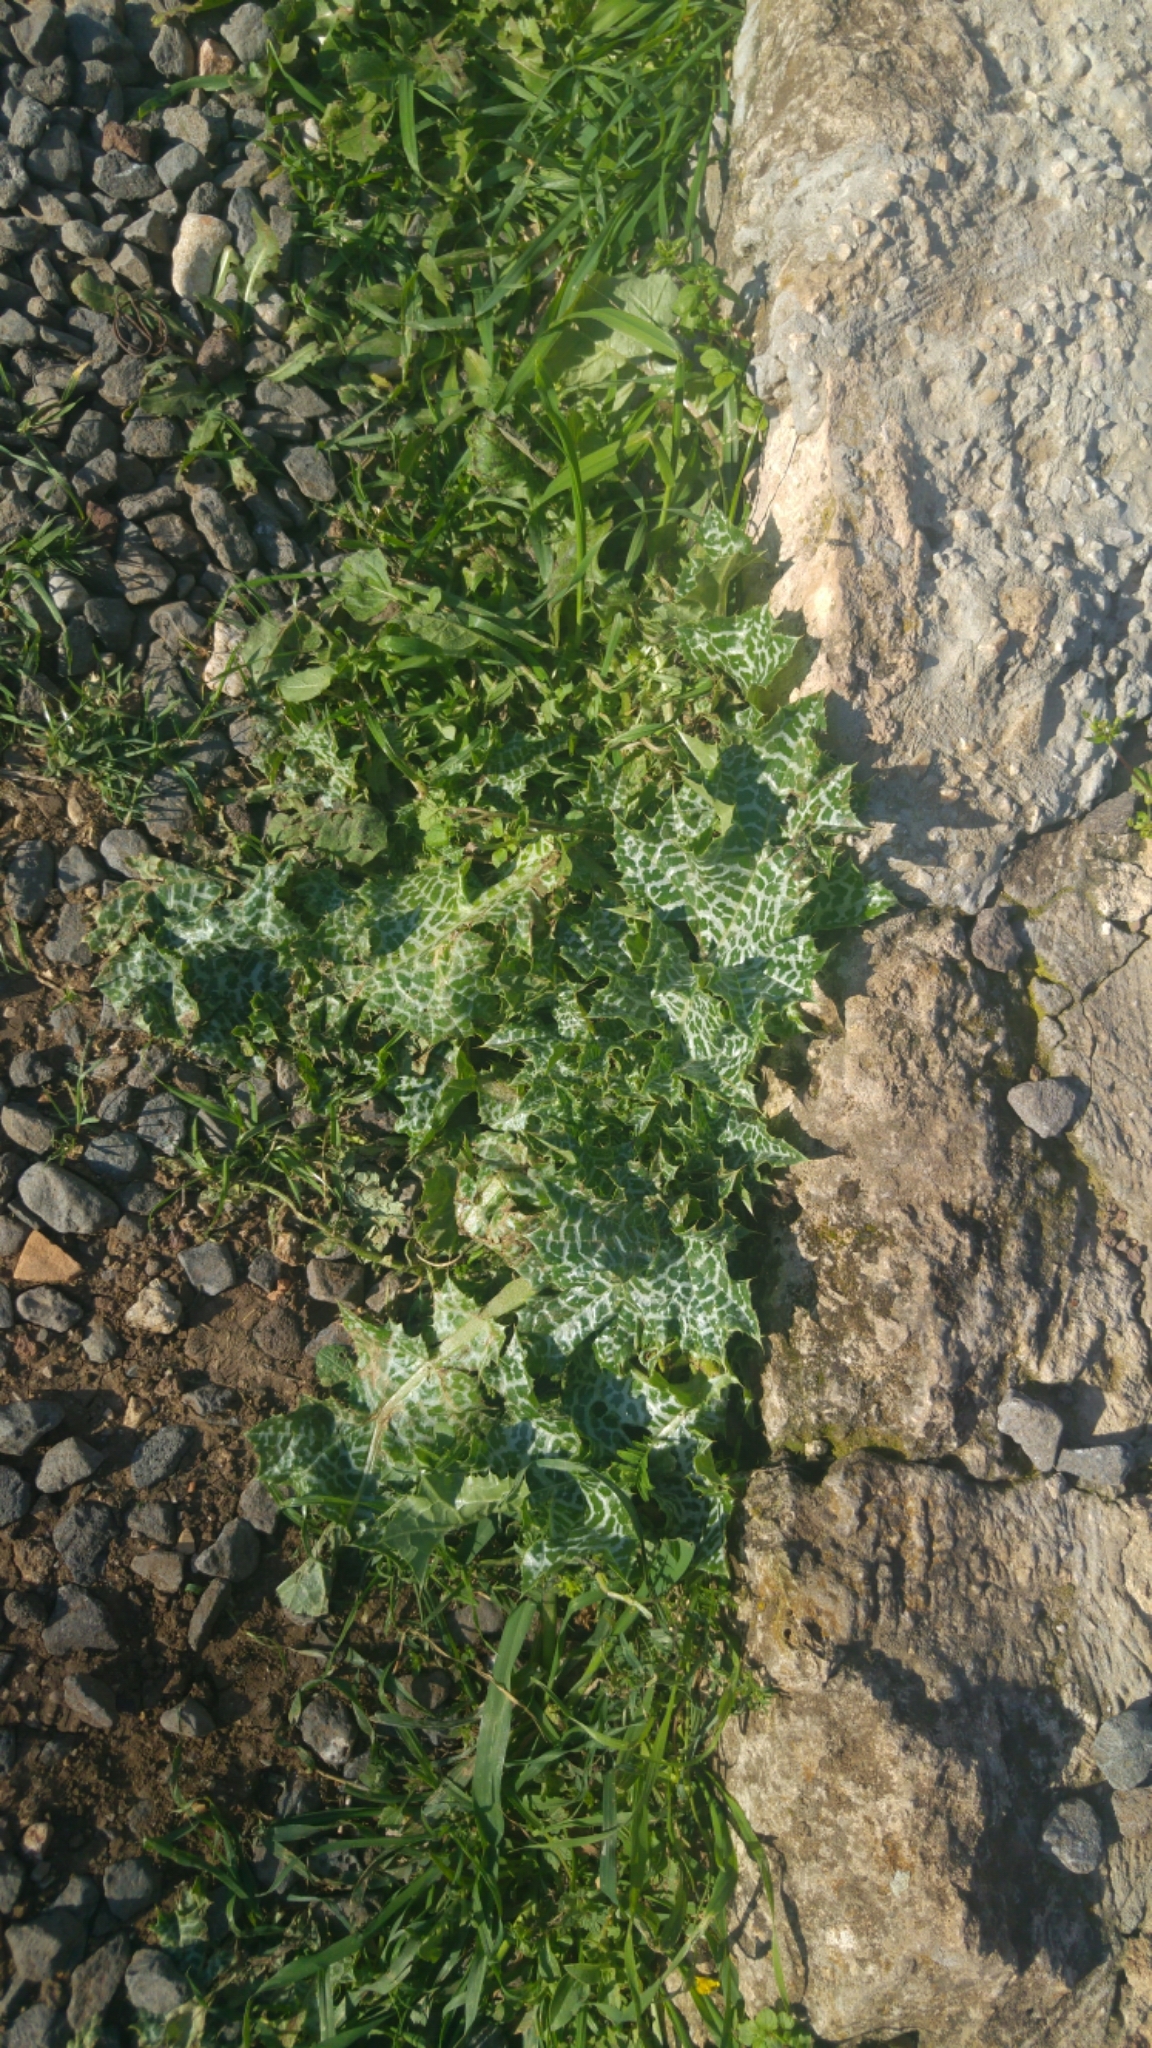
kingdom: Plantae
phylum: Tracheophyta
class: Magnoliopsida
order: Asterales
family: Asteraceae
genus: Silybum
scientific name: Silybum marianum
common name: Milk thistle
